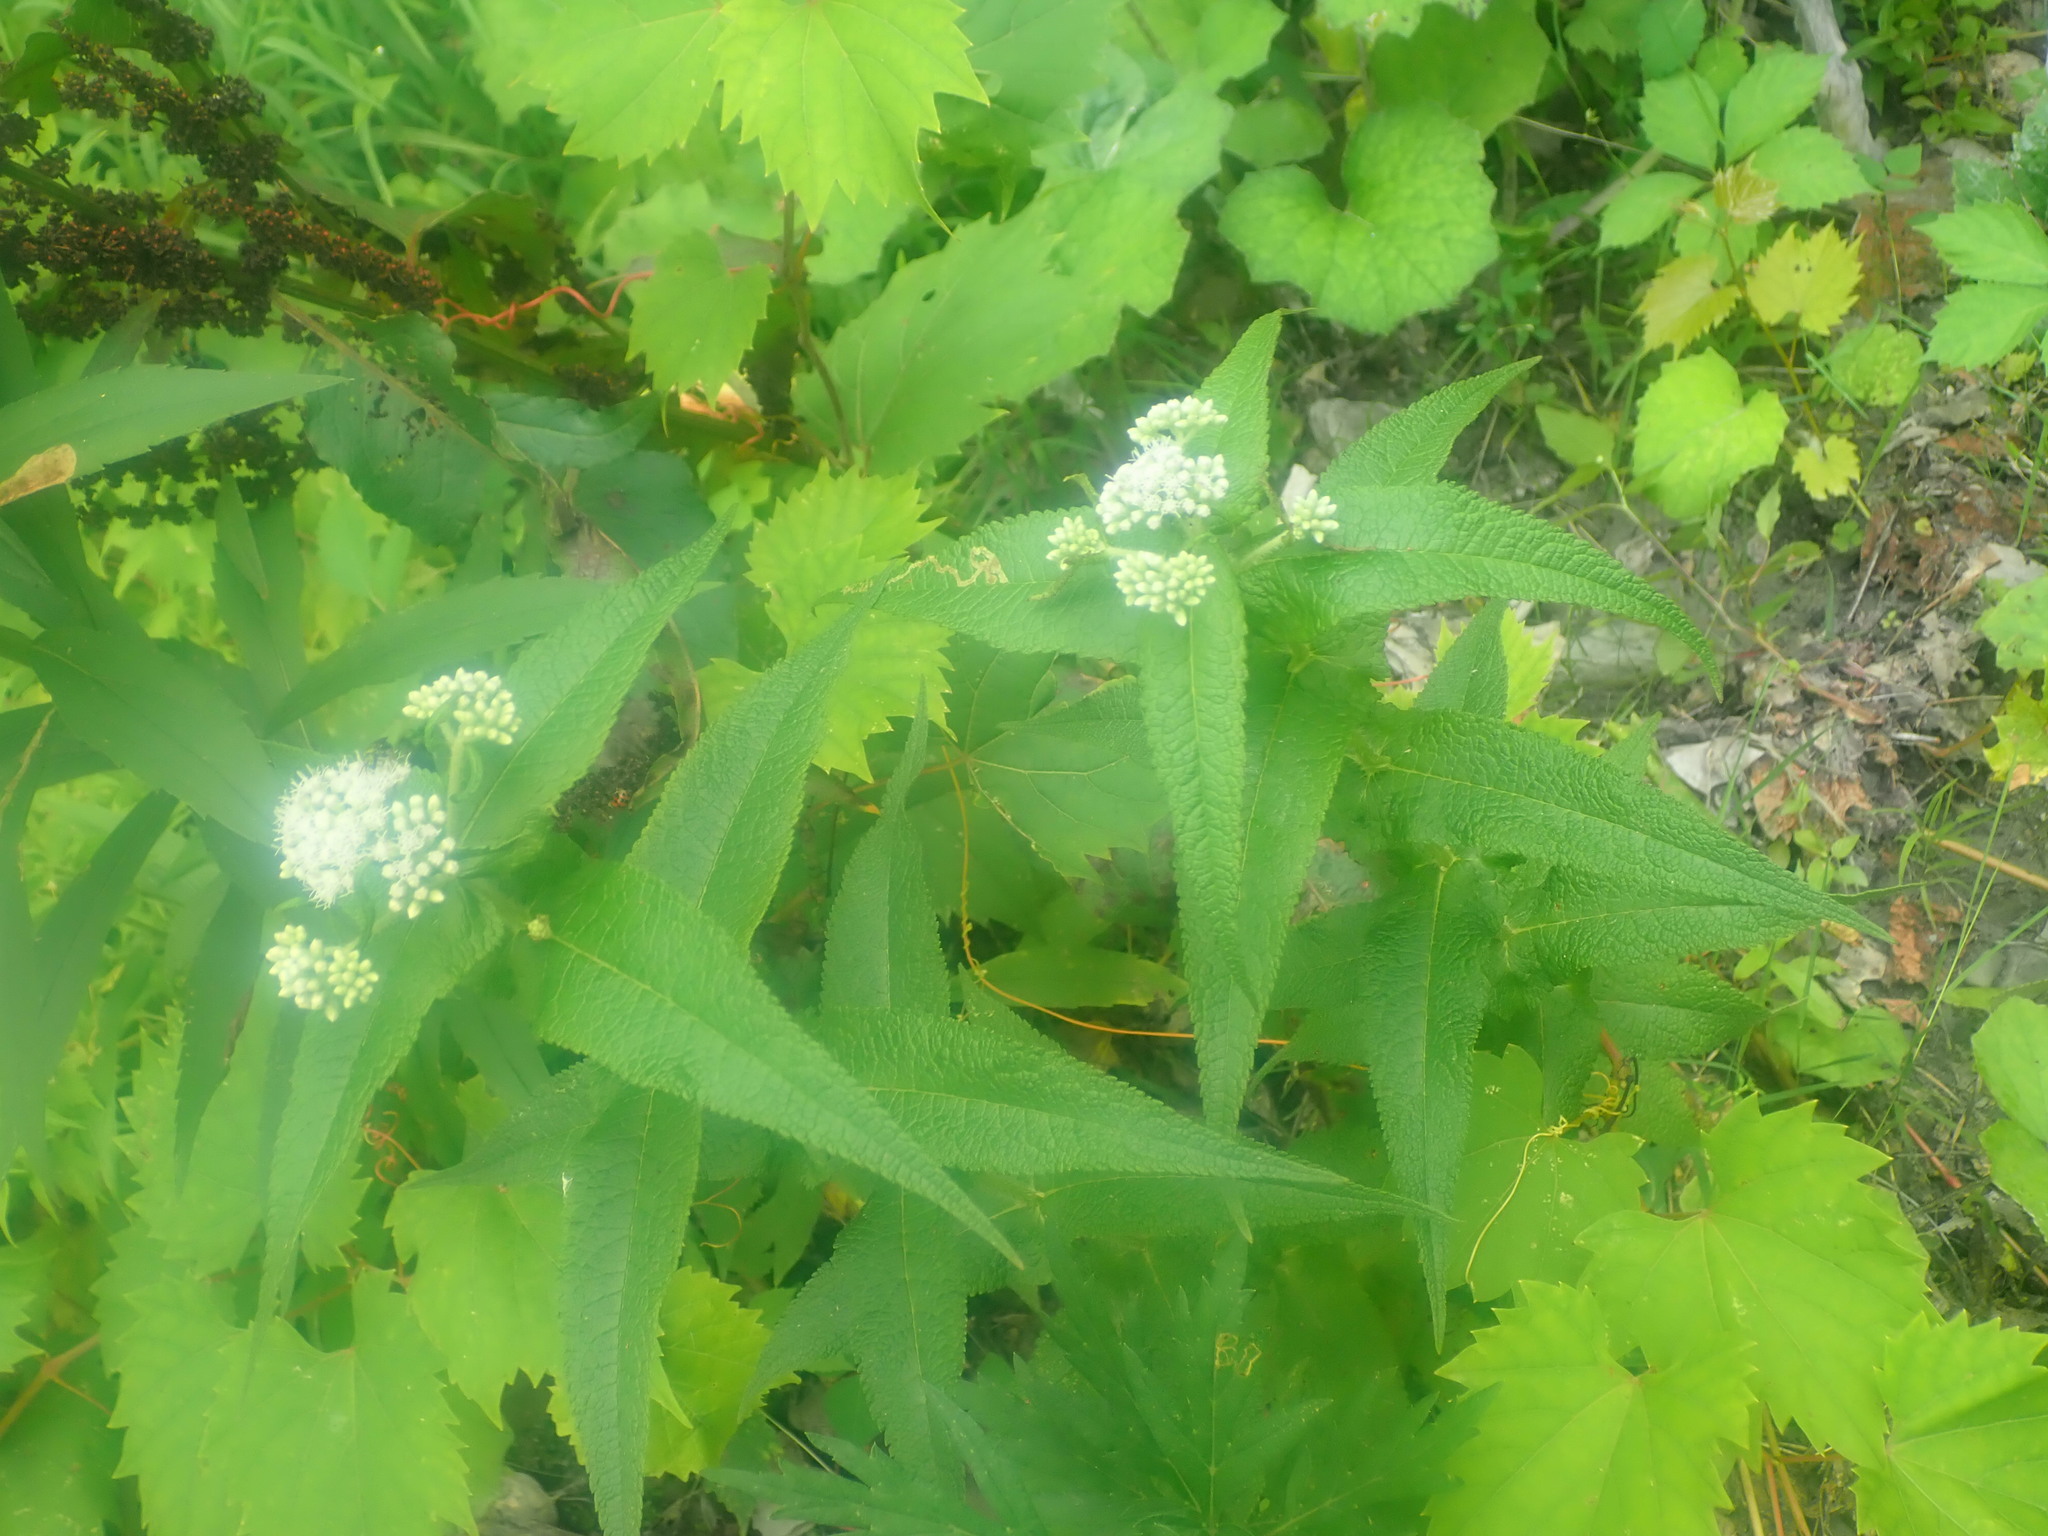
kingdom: Plantae
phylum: Tracheophyta
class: Magnoliopsida
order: Asterales
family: Asteraceae
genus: Eupatorium
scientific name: Eupatorium perfoliatum
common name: Boneset
